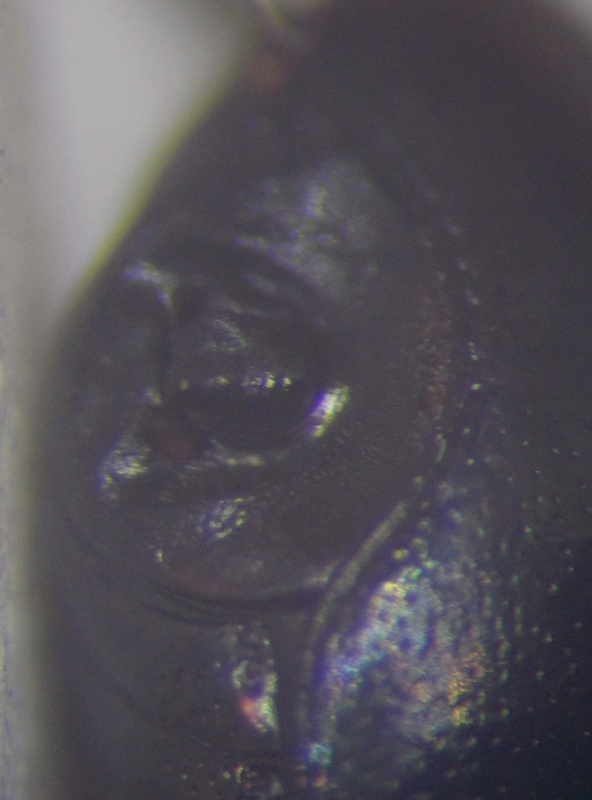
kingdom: Animalia
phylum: Arthropoda
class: Insecta
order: Hemiptera
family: Plataspidae
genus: Coptosoma
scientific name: Coptosoma scutellatum
